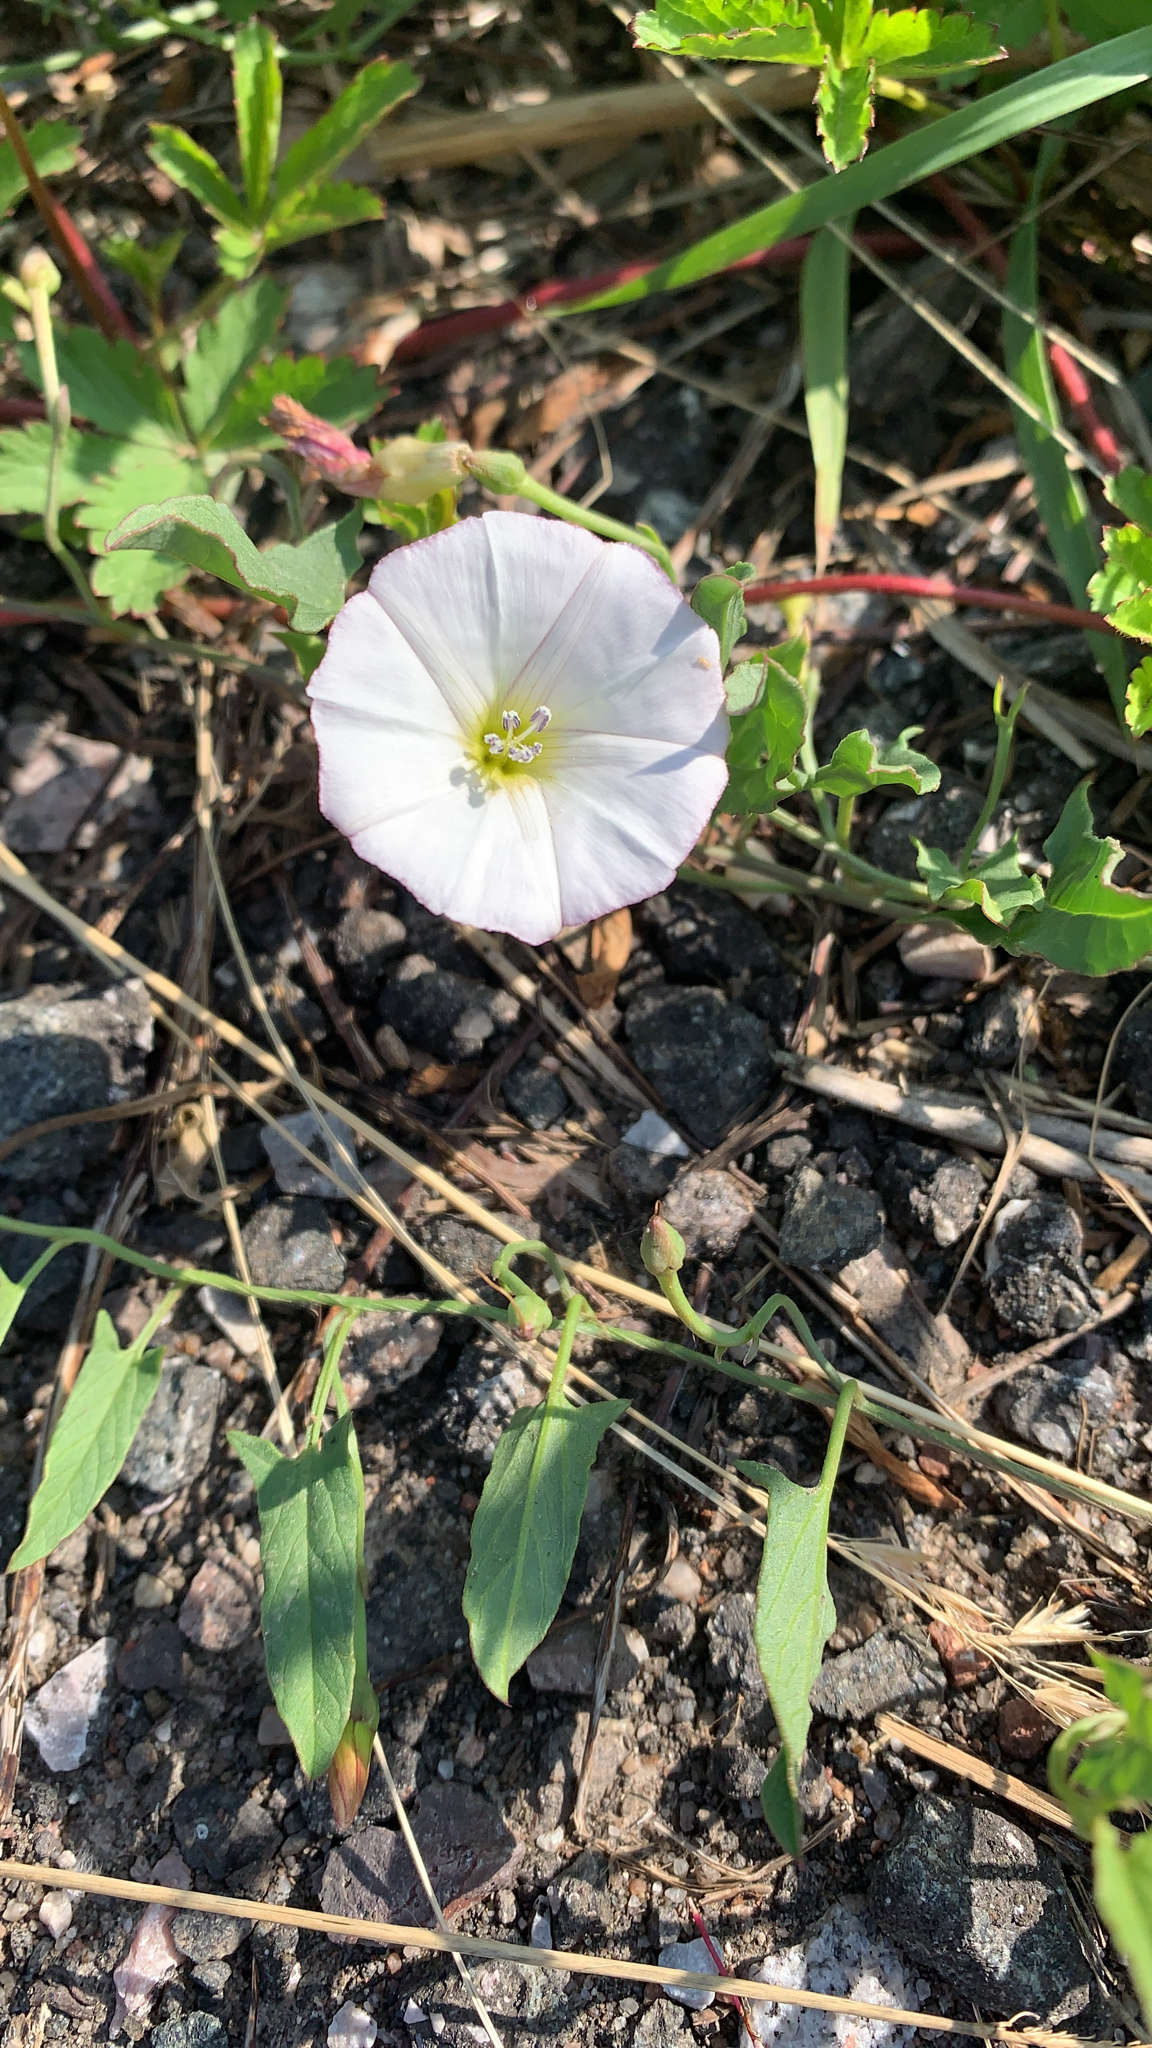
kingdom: Plantae
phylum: Tracheophyta
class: Magnoliopsida
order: Solanales
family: Convolvulaceae
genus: Convolvulus
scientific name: Convolvulus arvensis
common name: Field bindweed
